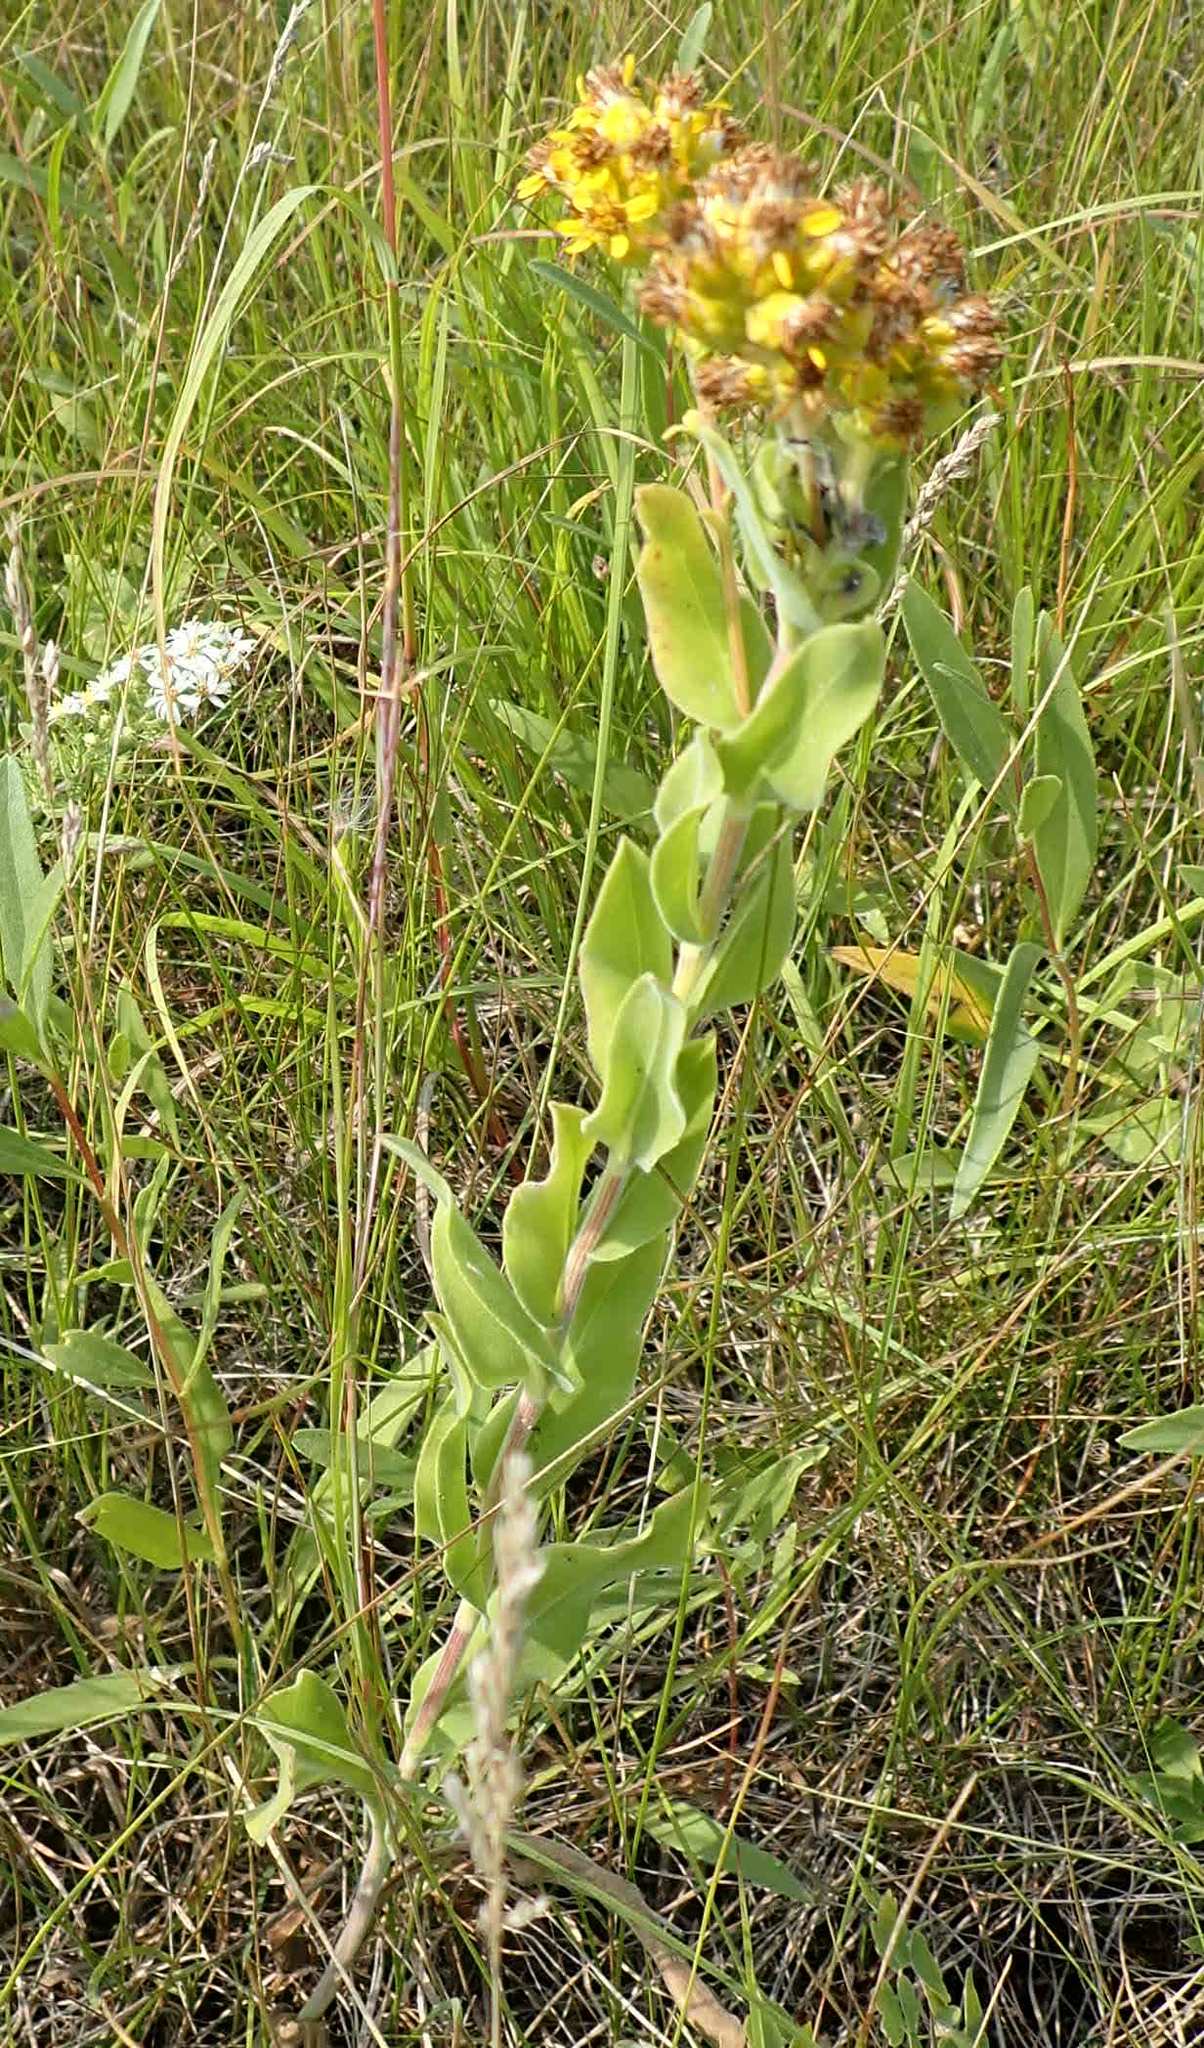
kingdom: Plantae
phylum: Tracheophyta
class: Magnoliopsida
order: Asterales
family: Asteraceae
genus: Solidago
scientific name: Solidago rigida
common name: Rigid goldenrod
